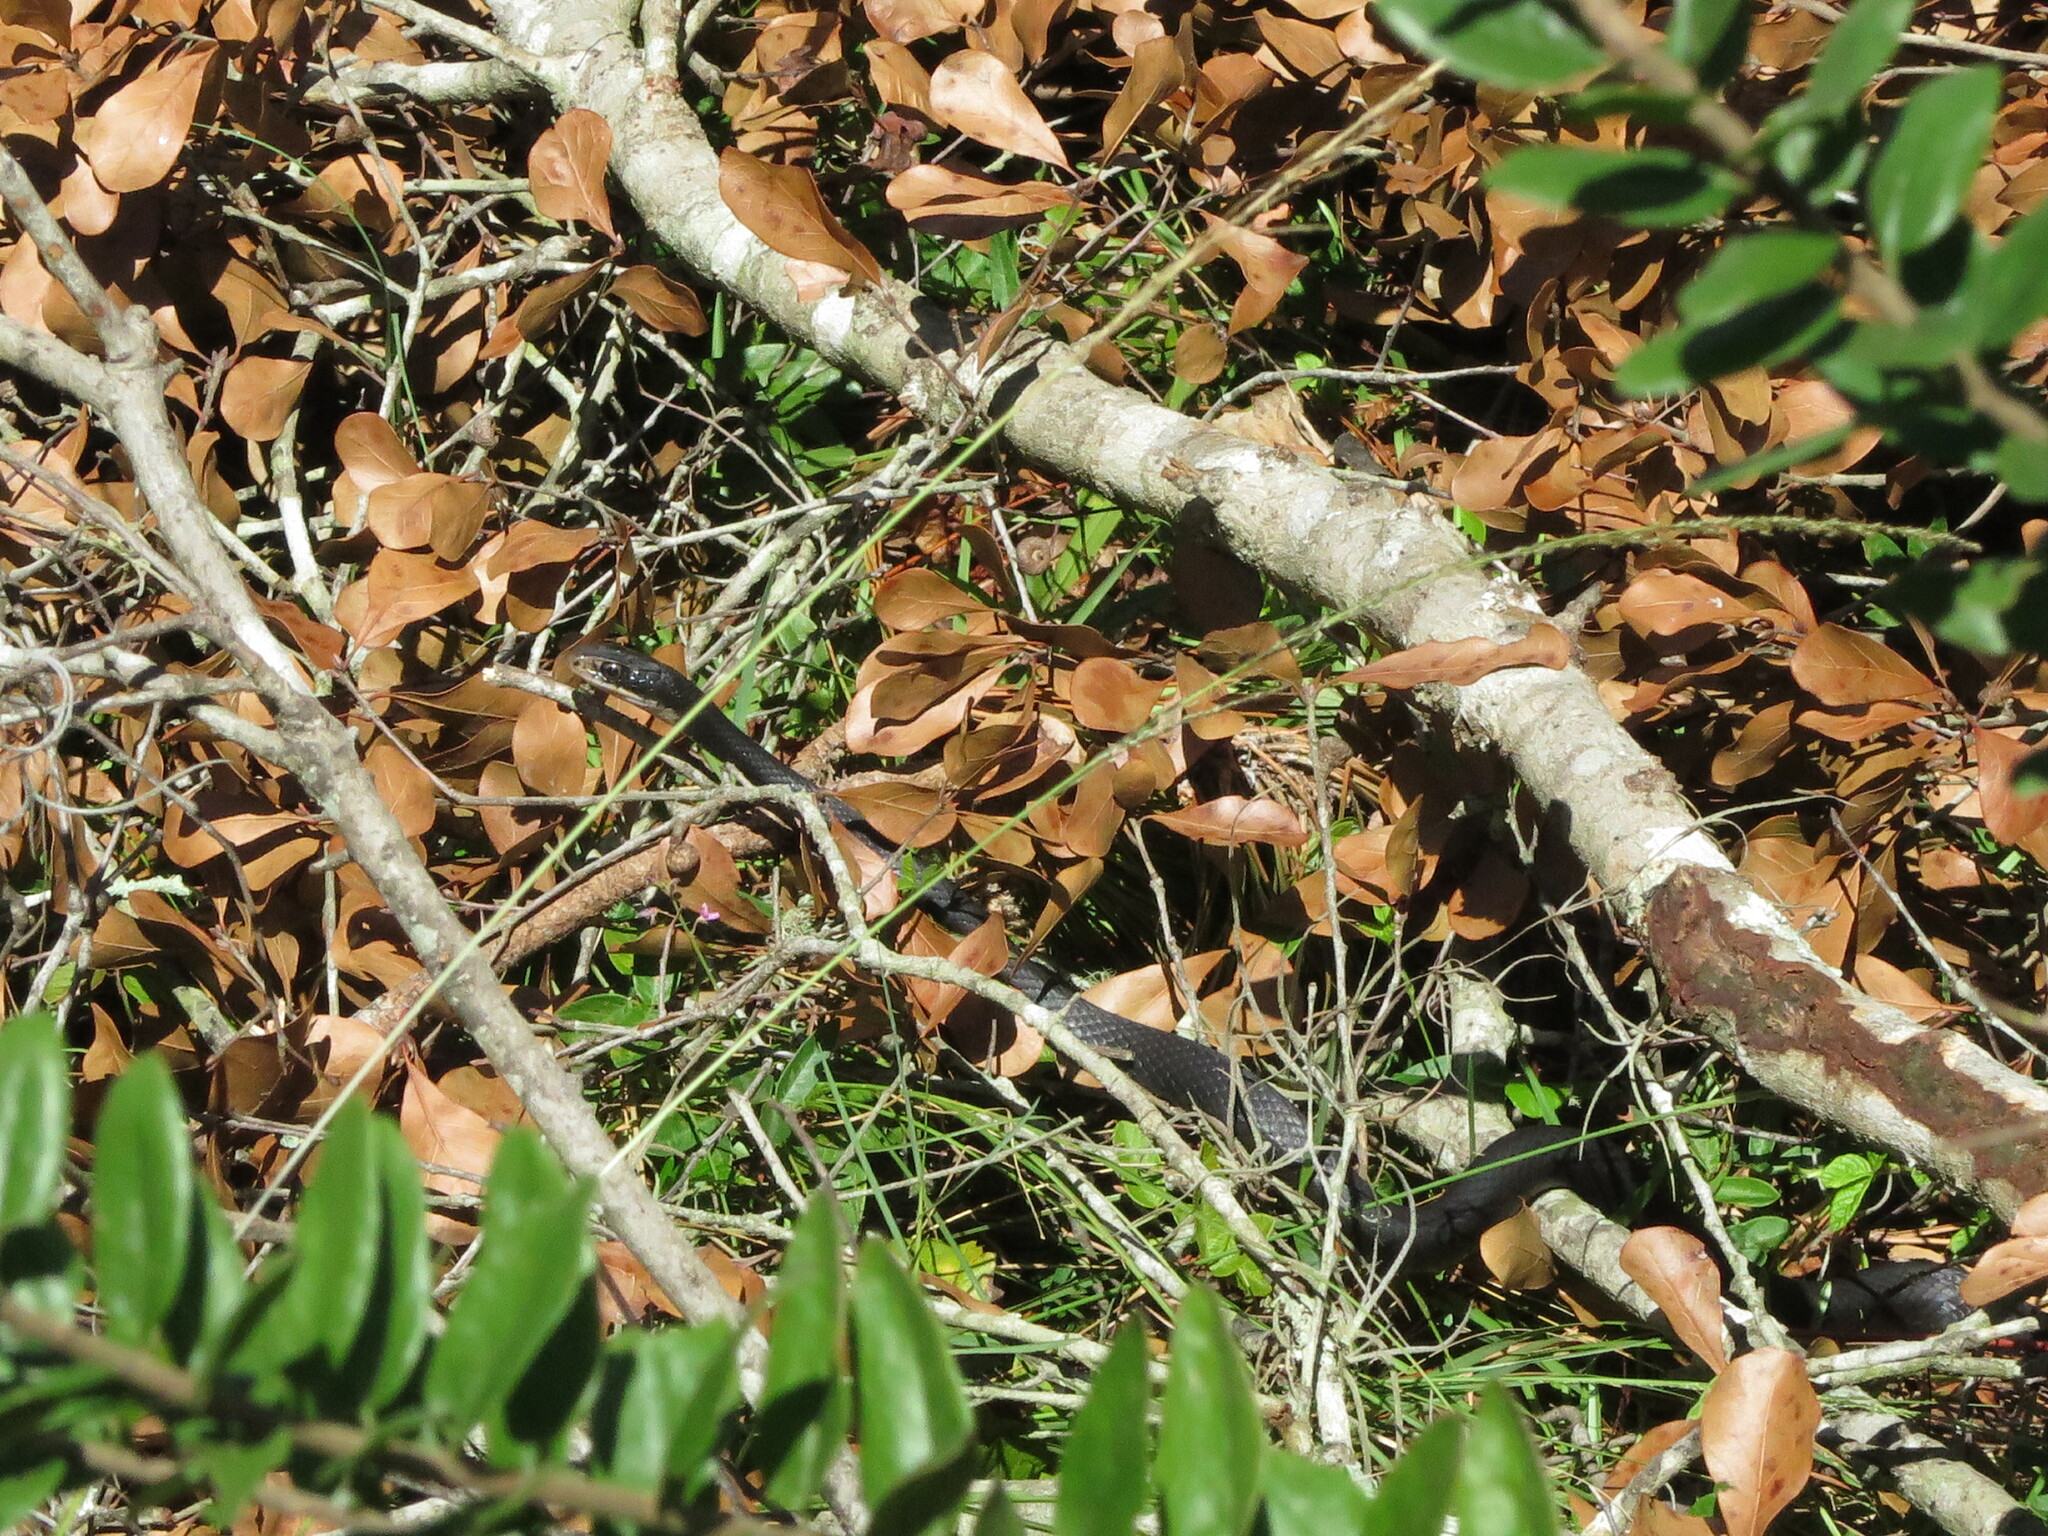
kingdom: Animalia
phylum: Chordata
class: Squamata
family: Colubridae
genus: Coluber
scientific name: Coluber constrictor
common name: Eastern racer
